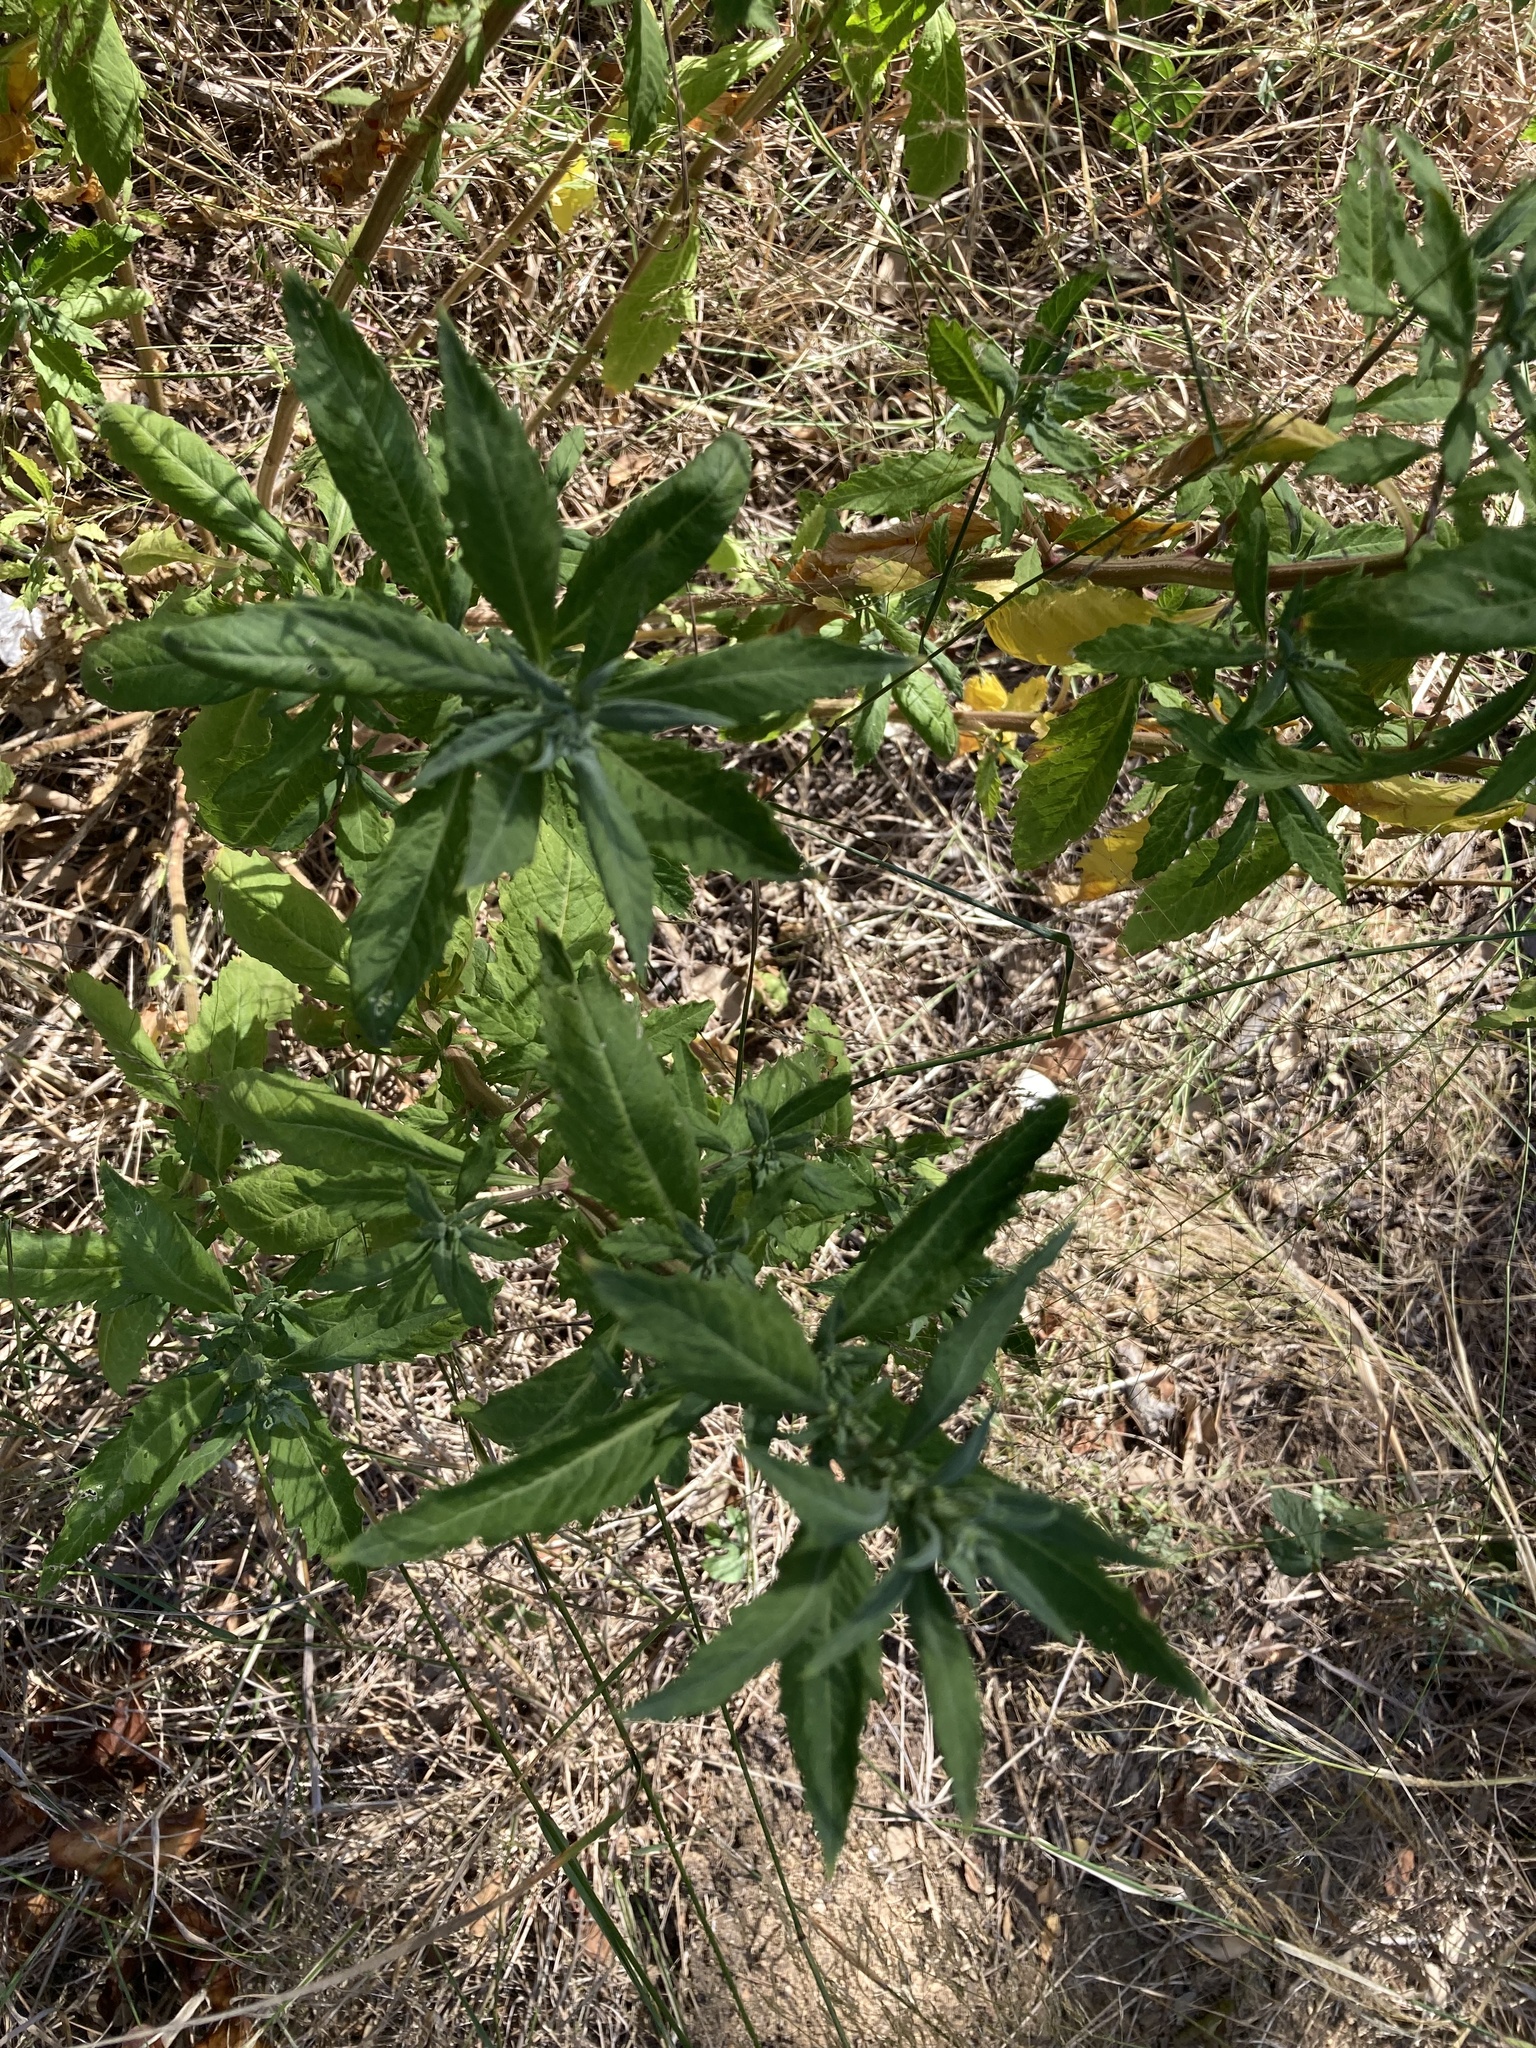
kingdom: Plantae
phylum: Tracheophyta
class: Magnoliopsida
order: Caryophyllales
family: Amaranthaceae
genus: Dysphania
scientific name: Dysphania ambrosioides
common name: Wormseed
